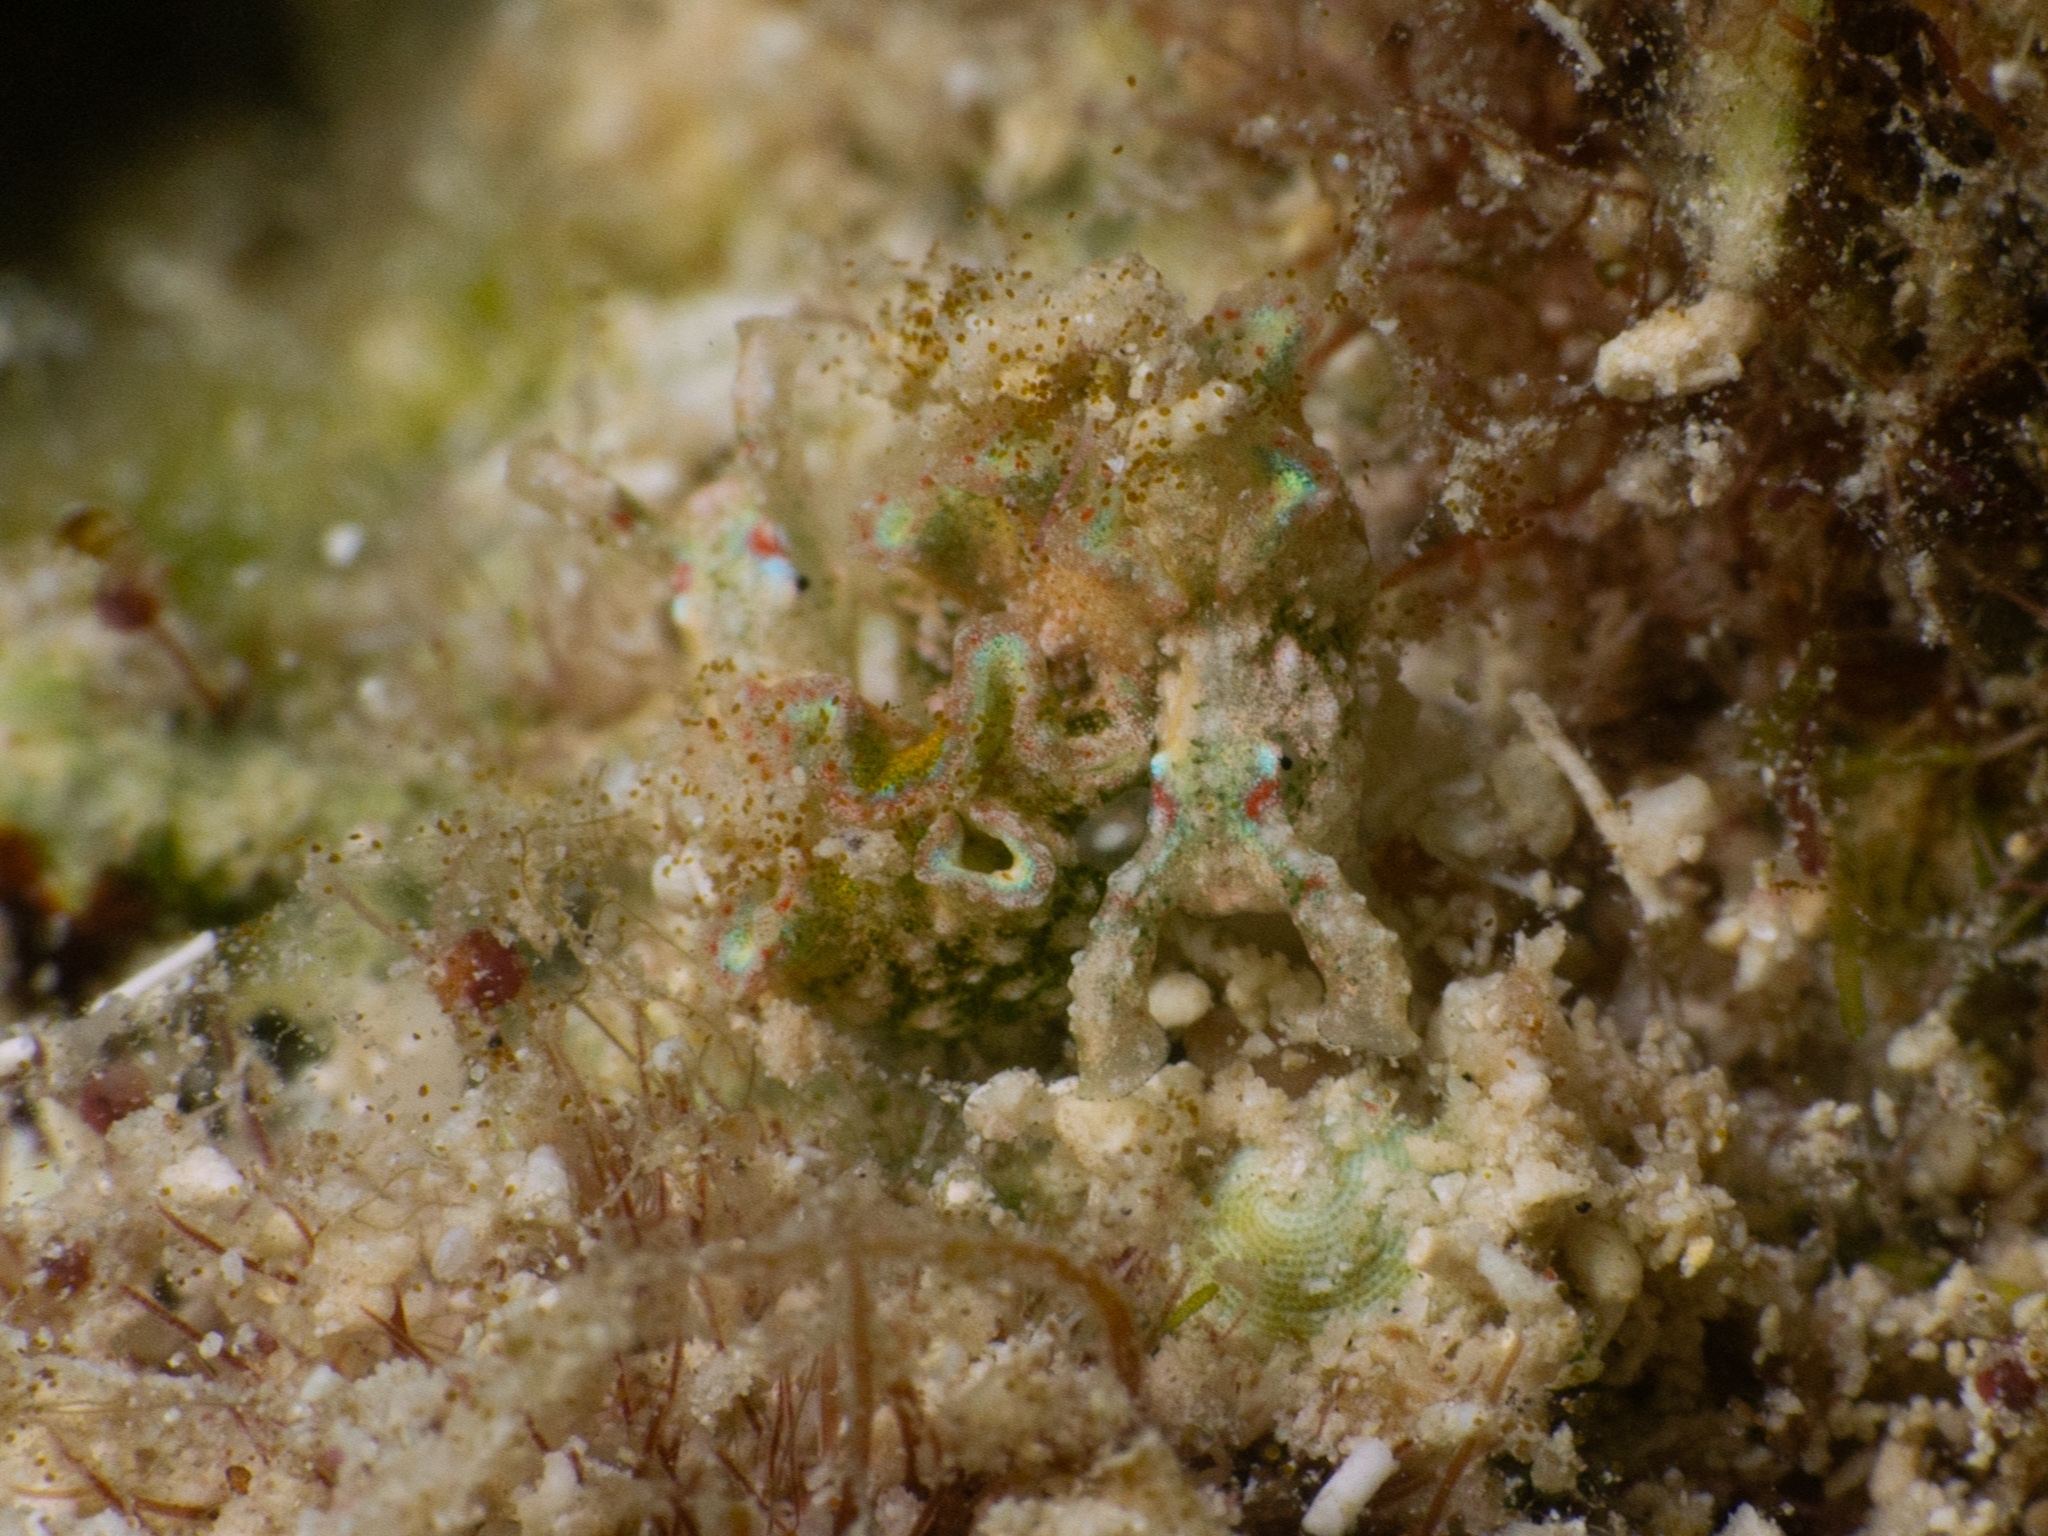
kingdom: Animalia
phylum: Mollusca
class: Gastropoda
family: Plakobranchidae
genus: Elysia
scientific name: Elysia ellenae
